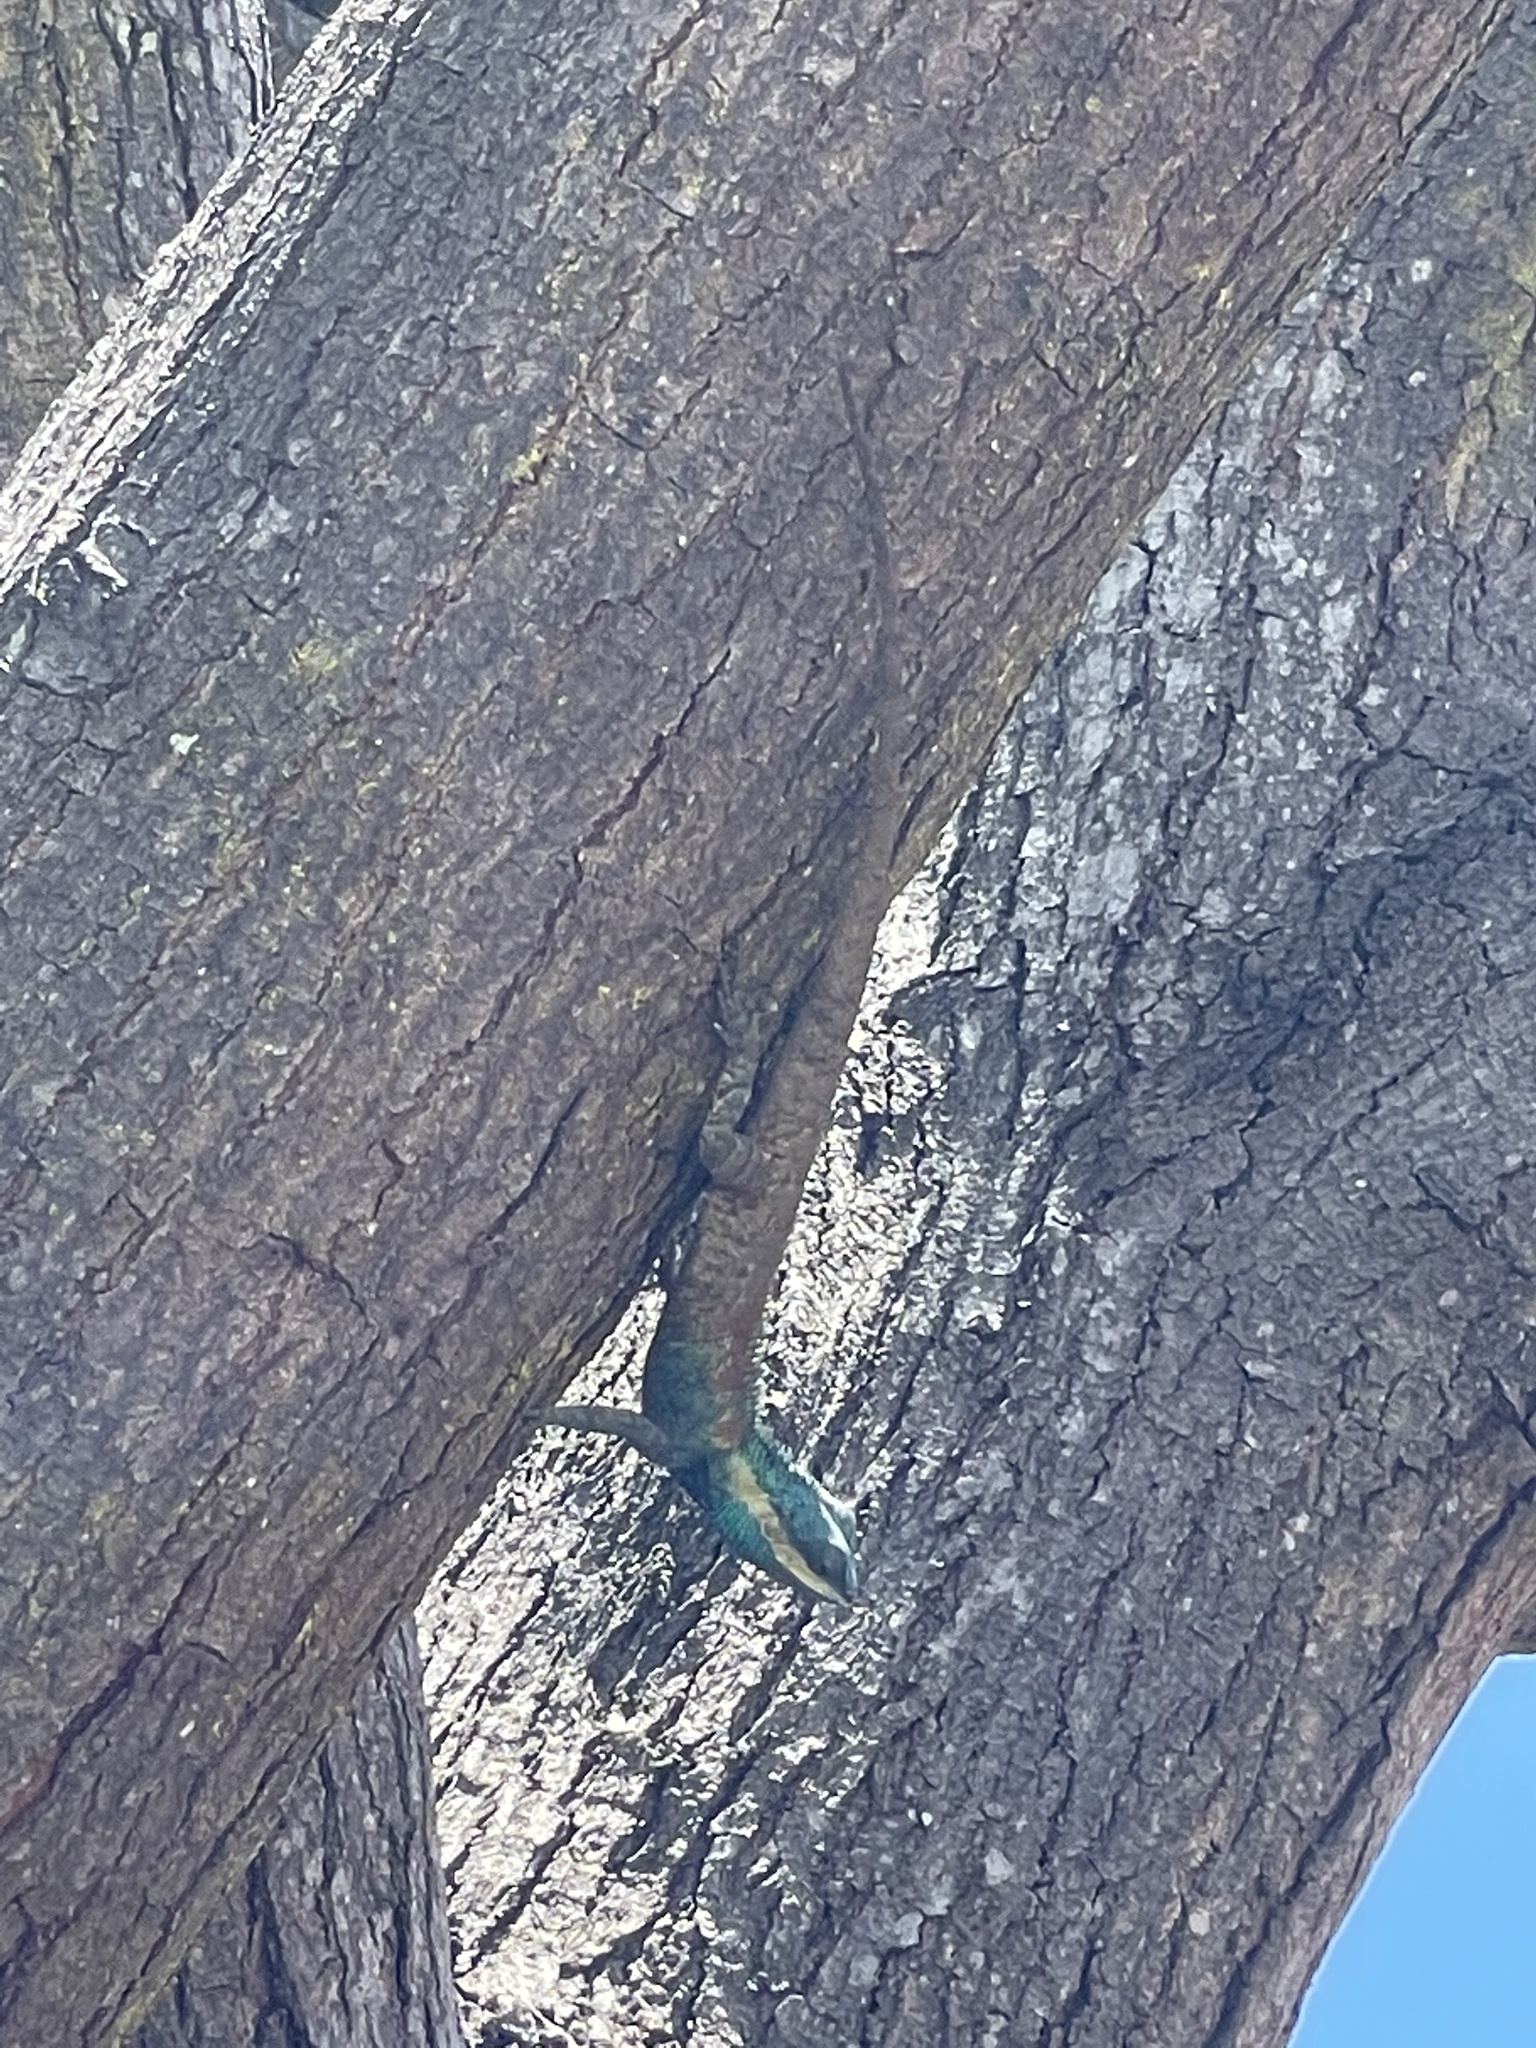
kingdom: Animalia
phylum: Chordata
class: Squamata
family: Agamidae
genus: Calotes
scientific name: Calotes mystaceus
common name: Indo-chinese forest lizard
